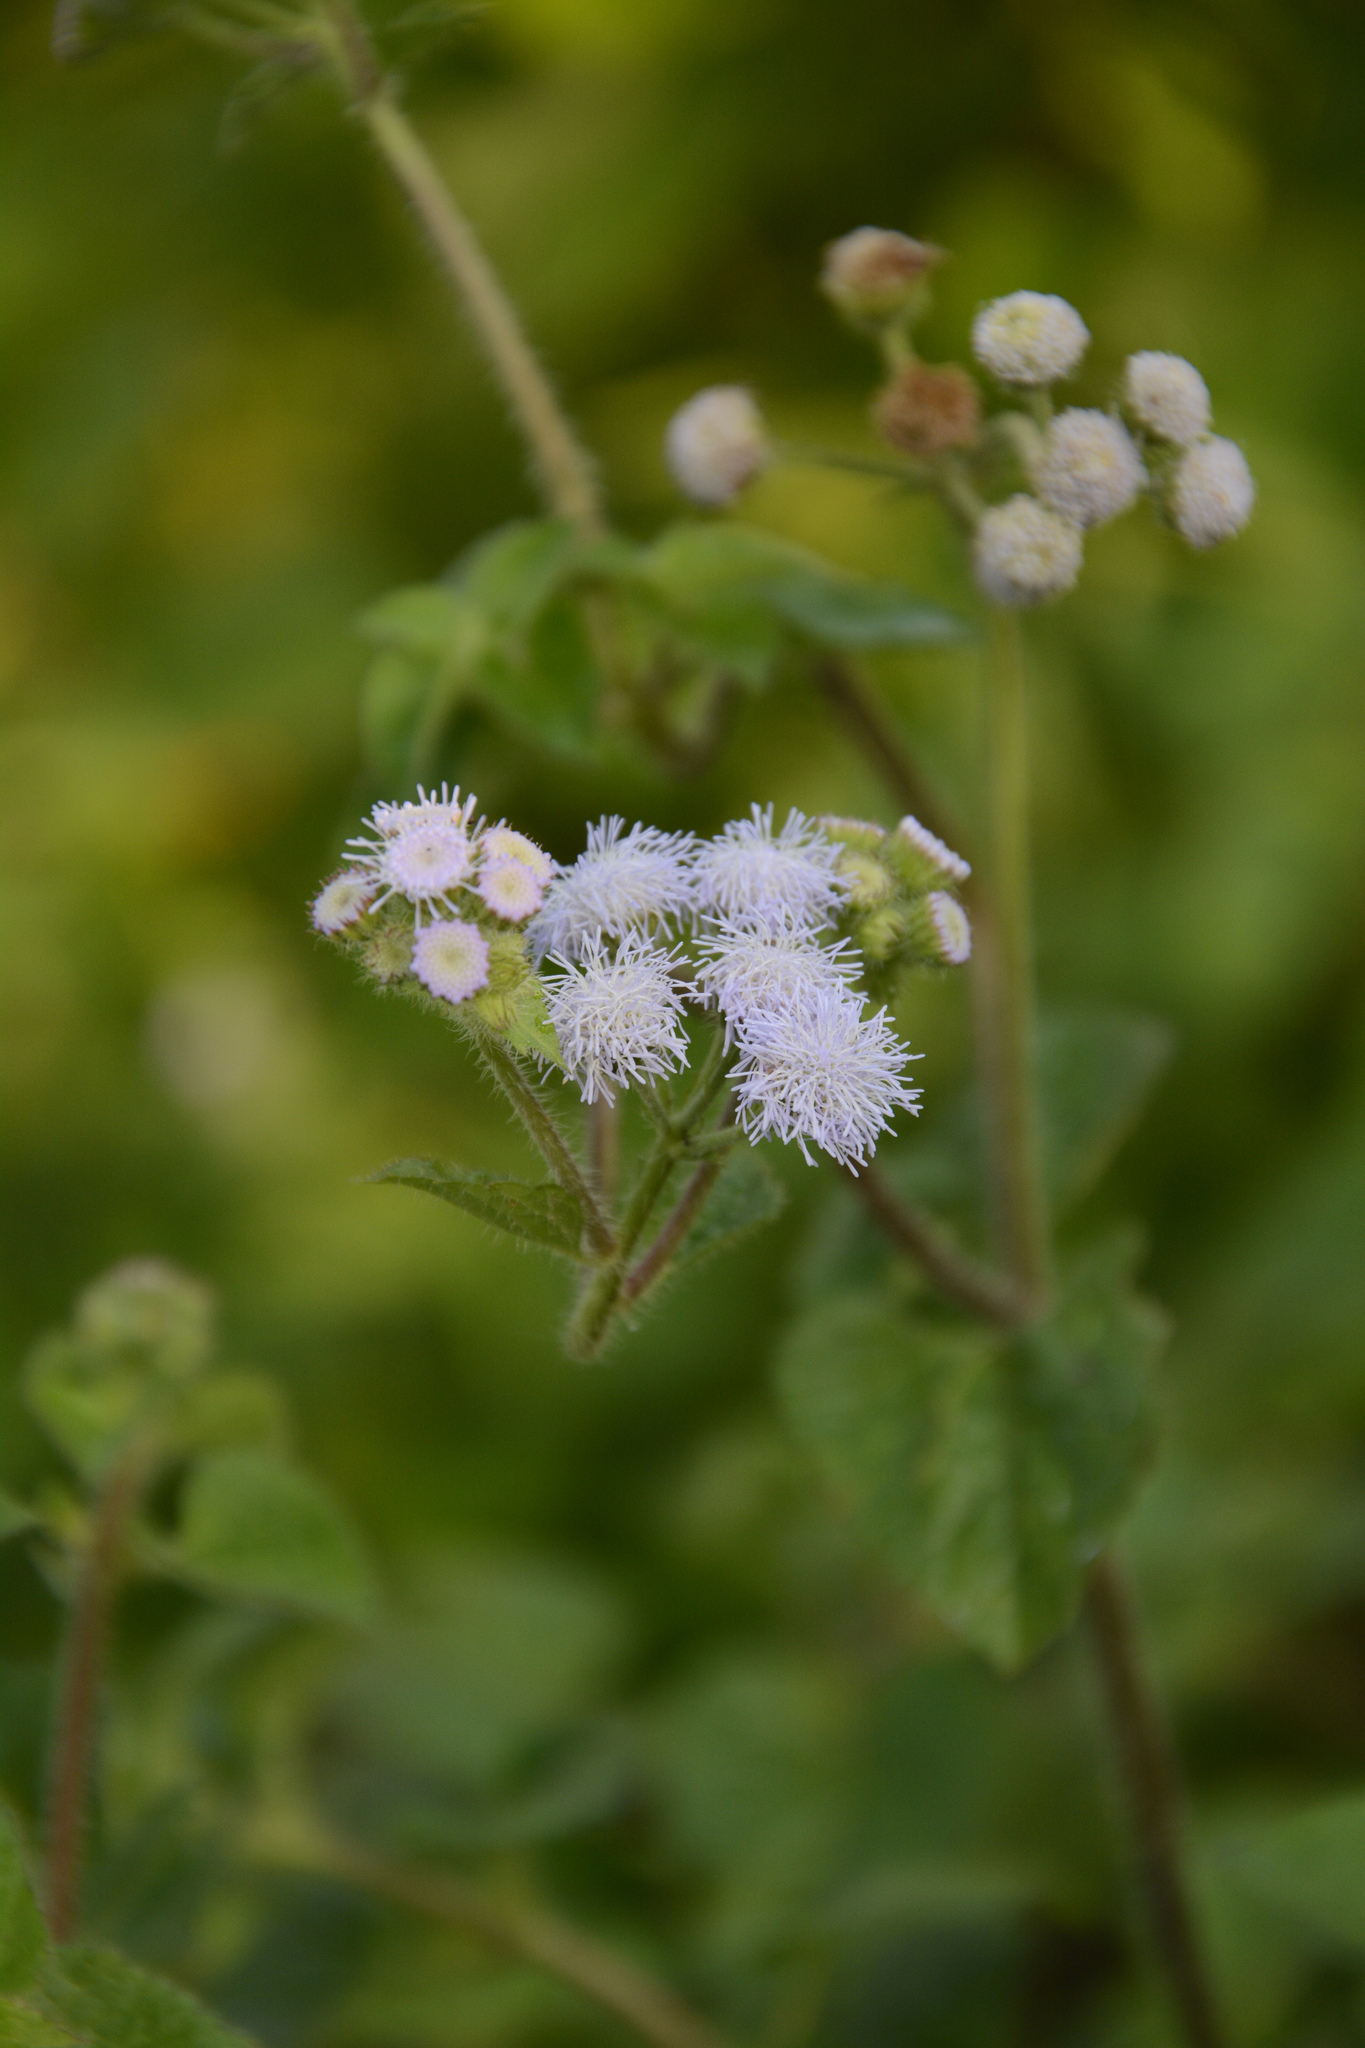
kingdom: Plantae
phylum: Tracheophyta
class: Magnoliopsida
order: Asterales
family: Asteraceae
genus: Ageratum
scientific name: Ageratum houstonianum
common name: Bluemink
